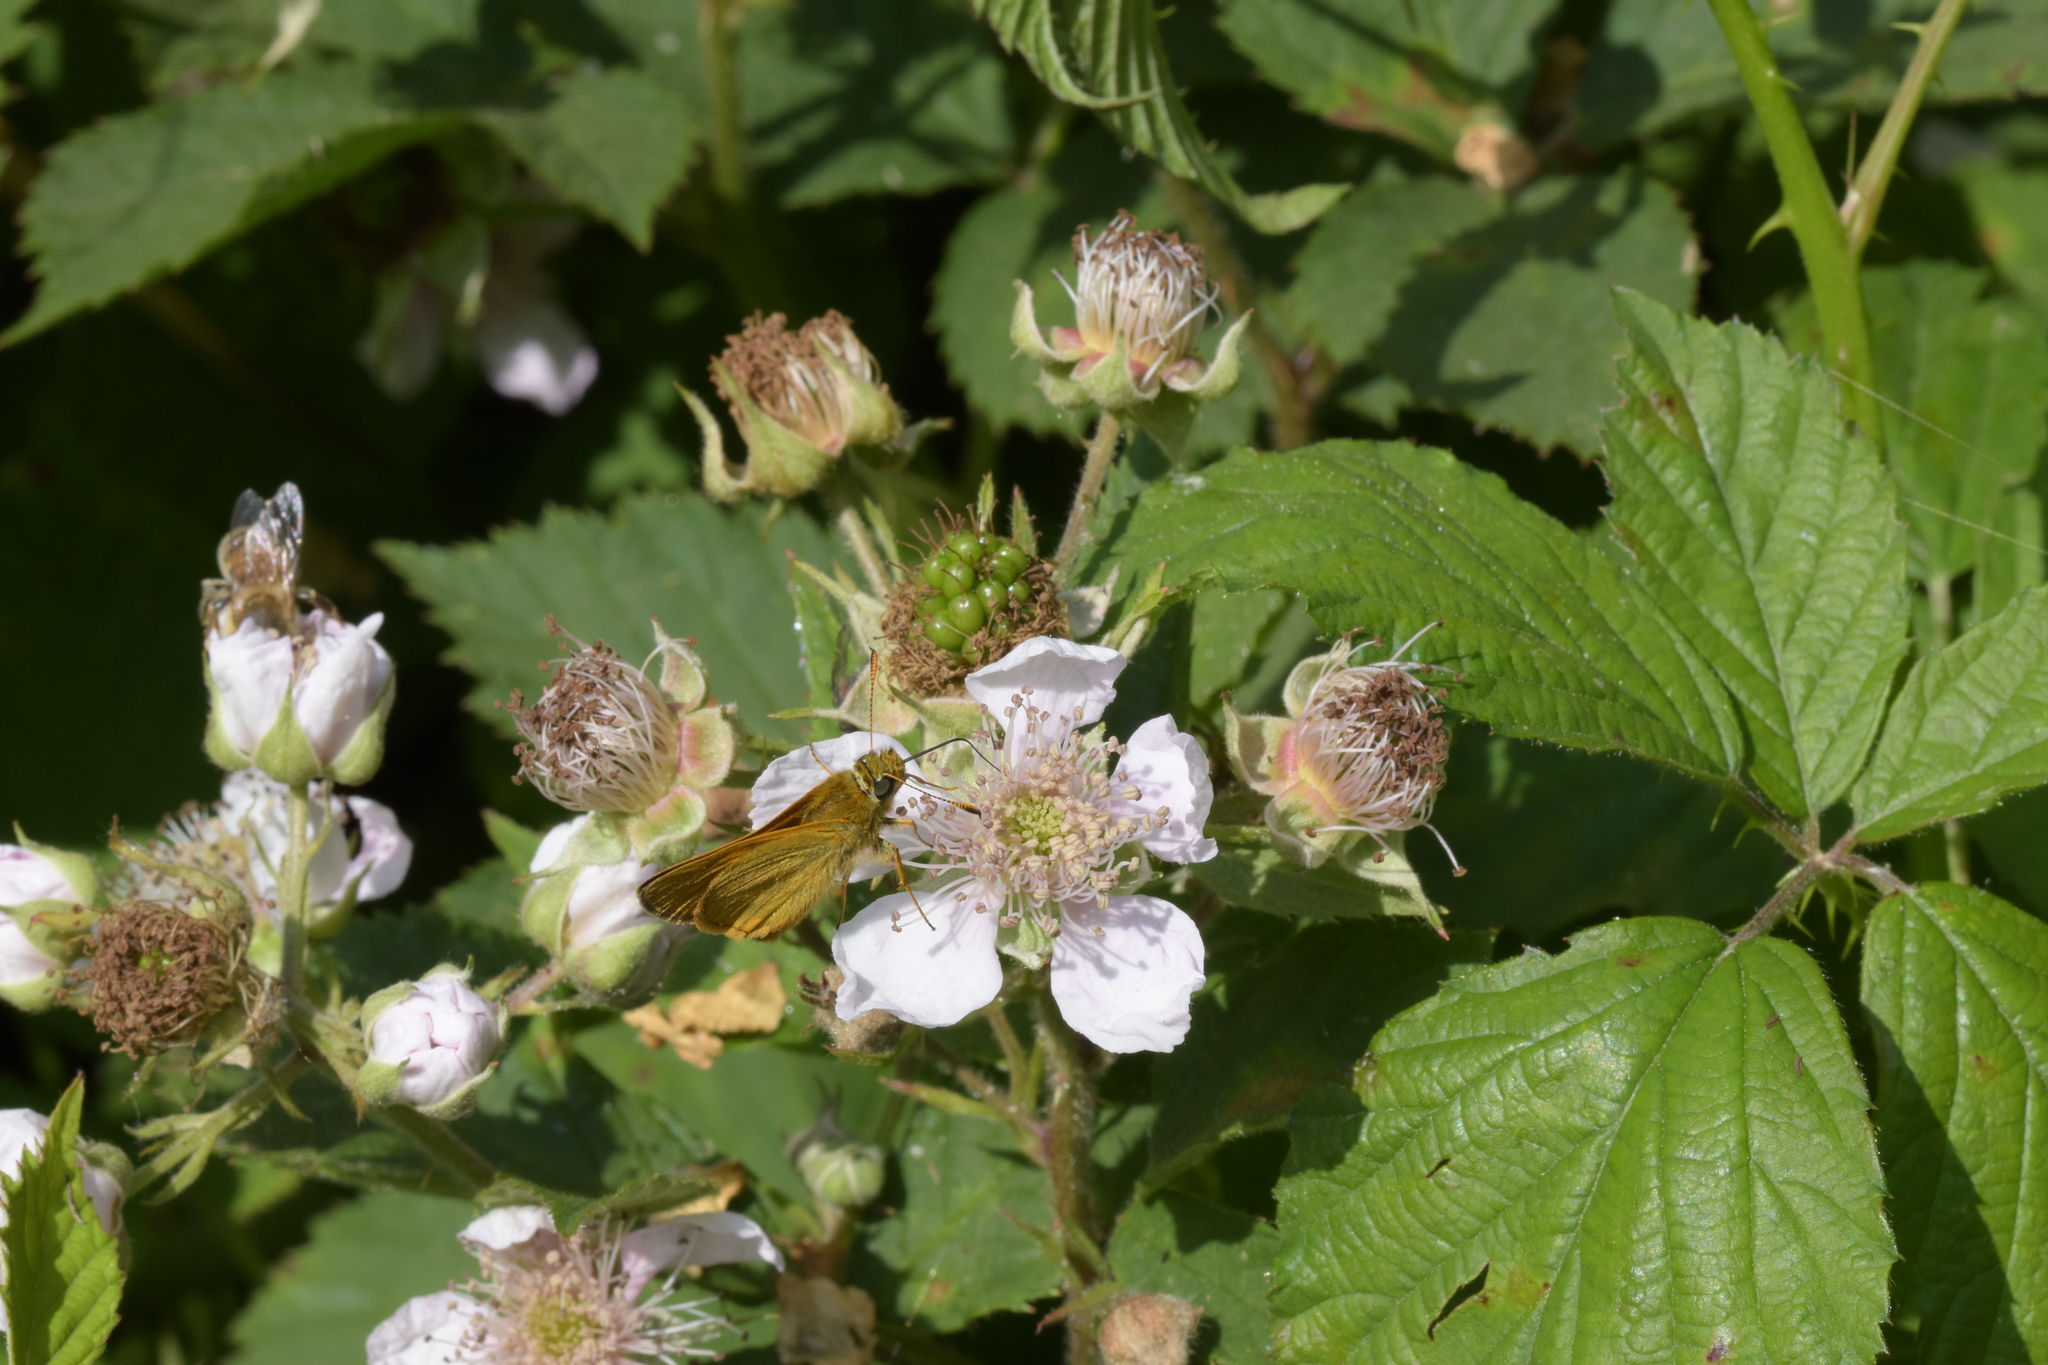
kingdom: Animalia
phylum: Arthropoda
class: Insecta
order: Lepidoptera
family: Hesperiidae
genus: Ochlodes
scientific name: Ochlodes venata
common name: Large skipper
